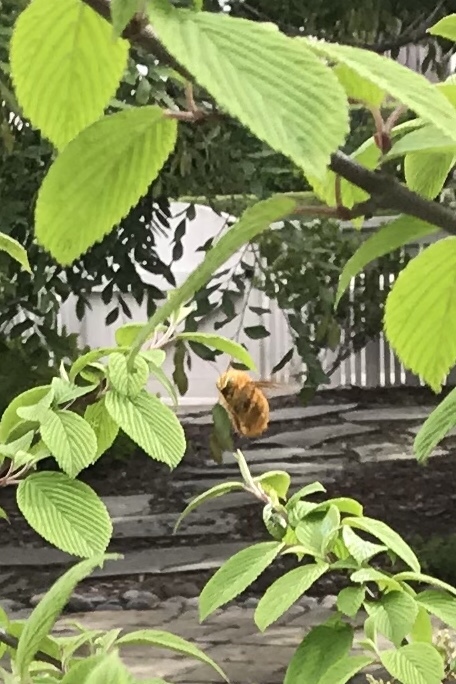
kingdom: Animalia
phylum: Arthropoda
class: Insecta
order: Hymenoptera
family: Apidae
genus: Xylocopa
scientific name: Xylocopa sonorina
